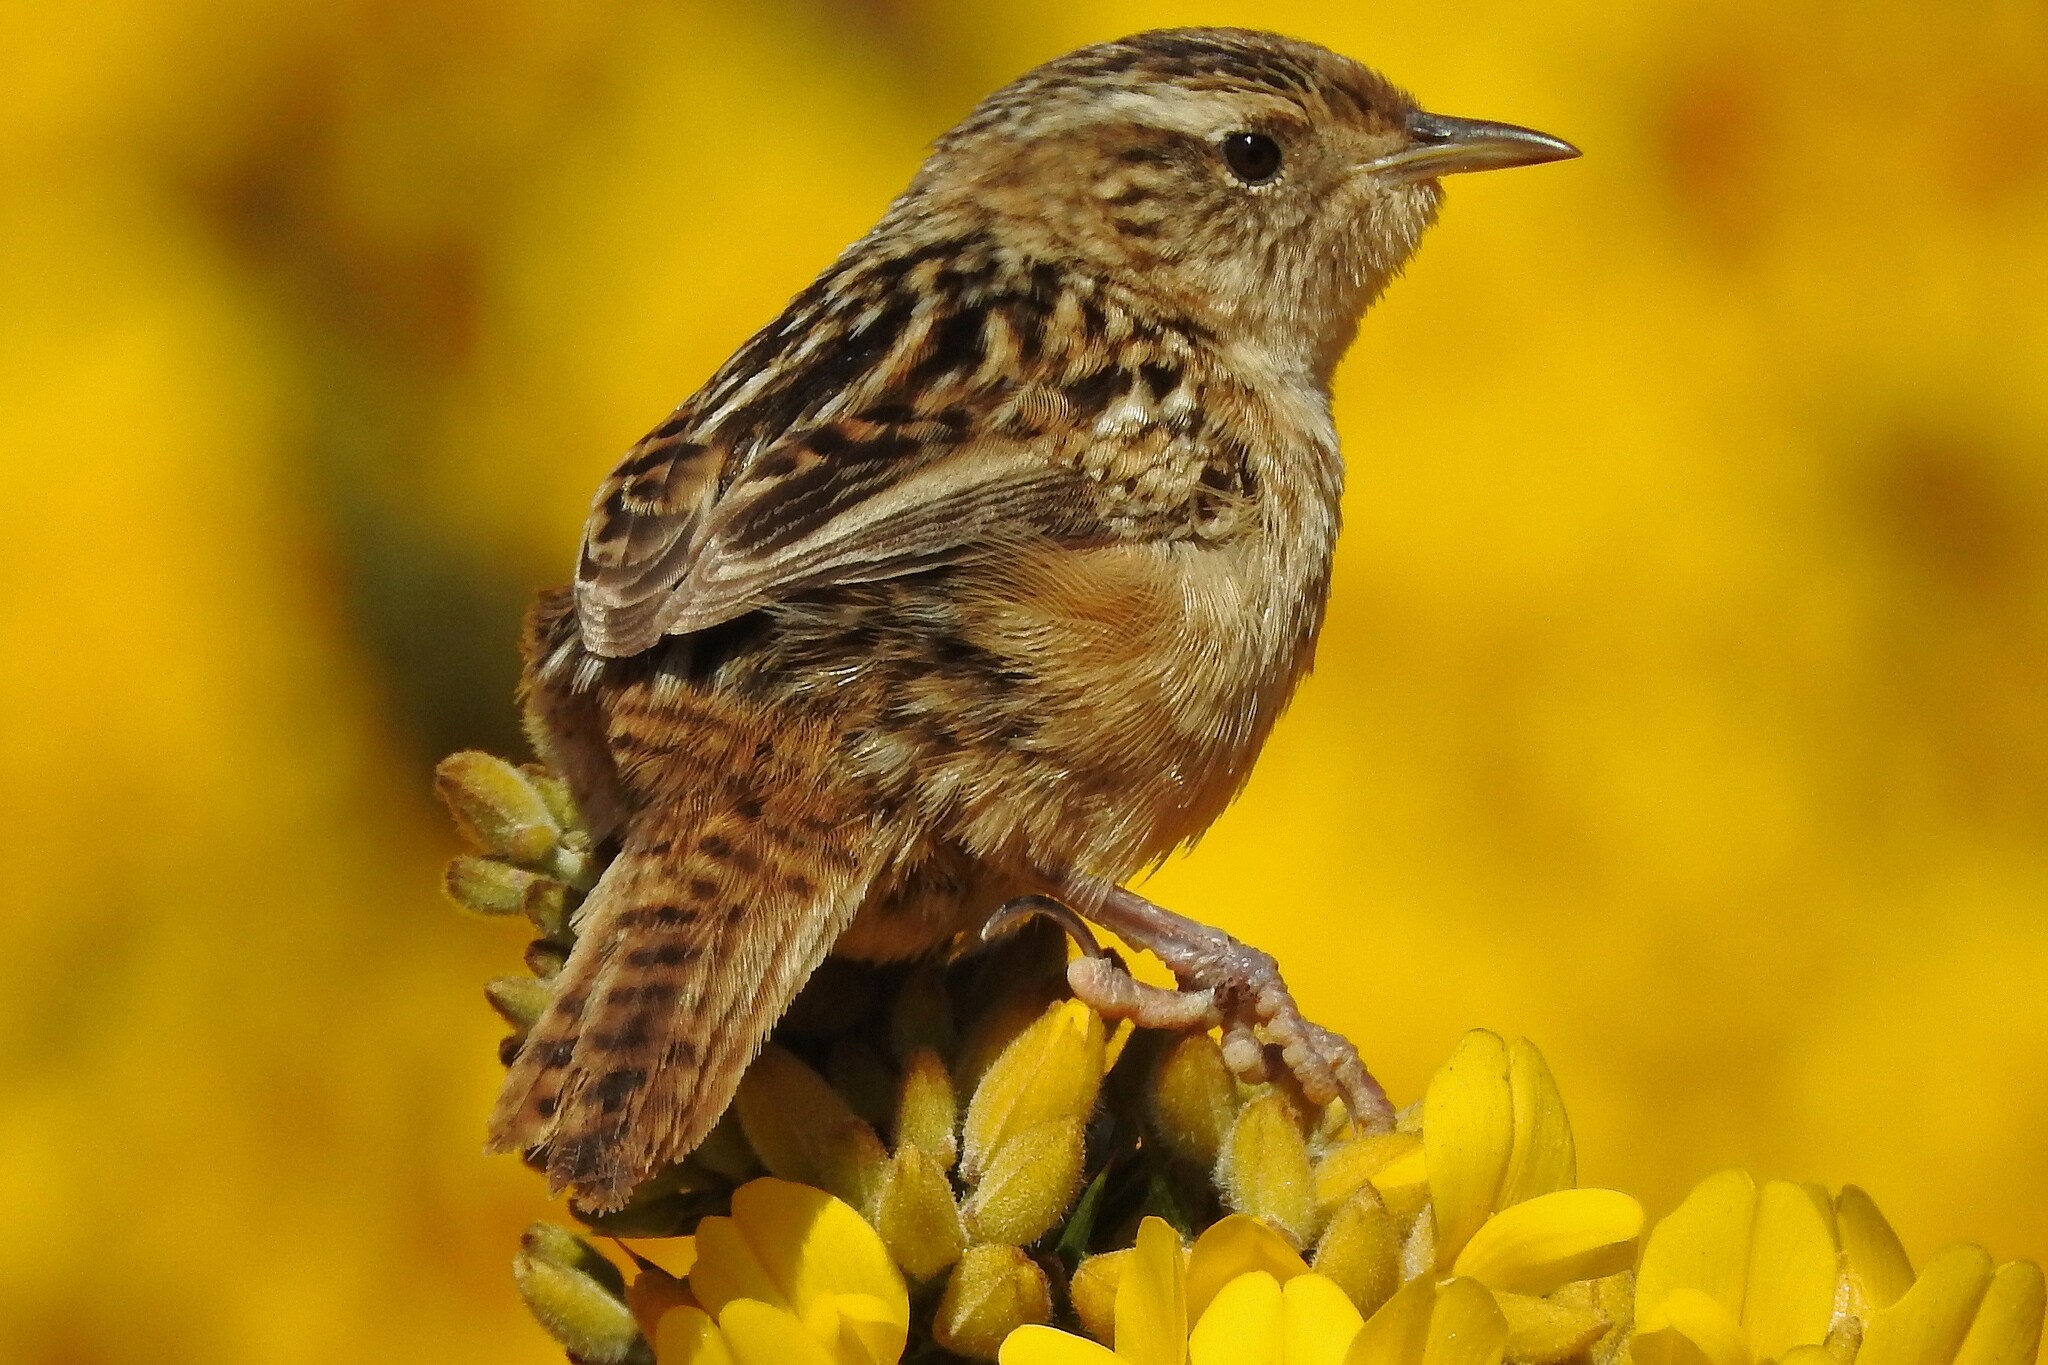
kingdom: Animalia
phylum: Chordata
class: Aves
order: Passeriformes
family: Troglodytidae
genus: Cistothorus
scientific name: Cistothorus platensis
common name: Sedge wren
